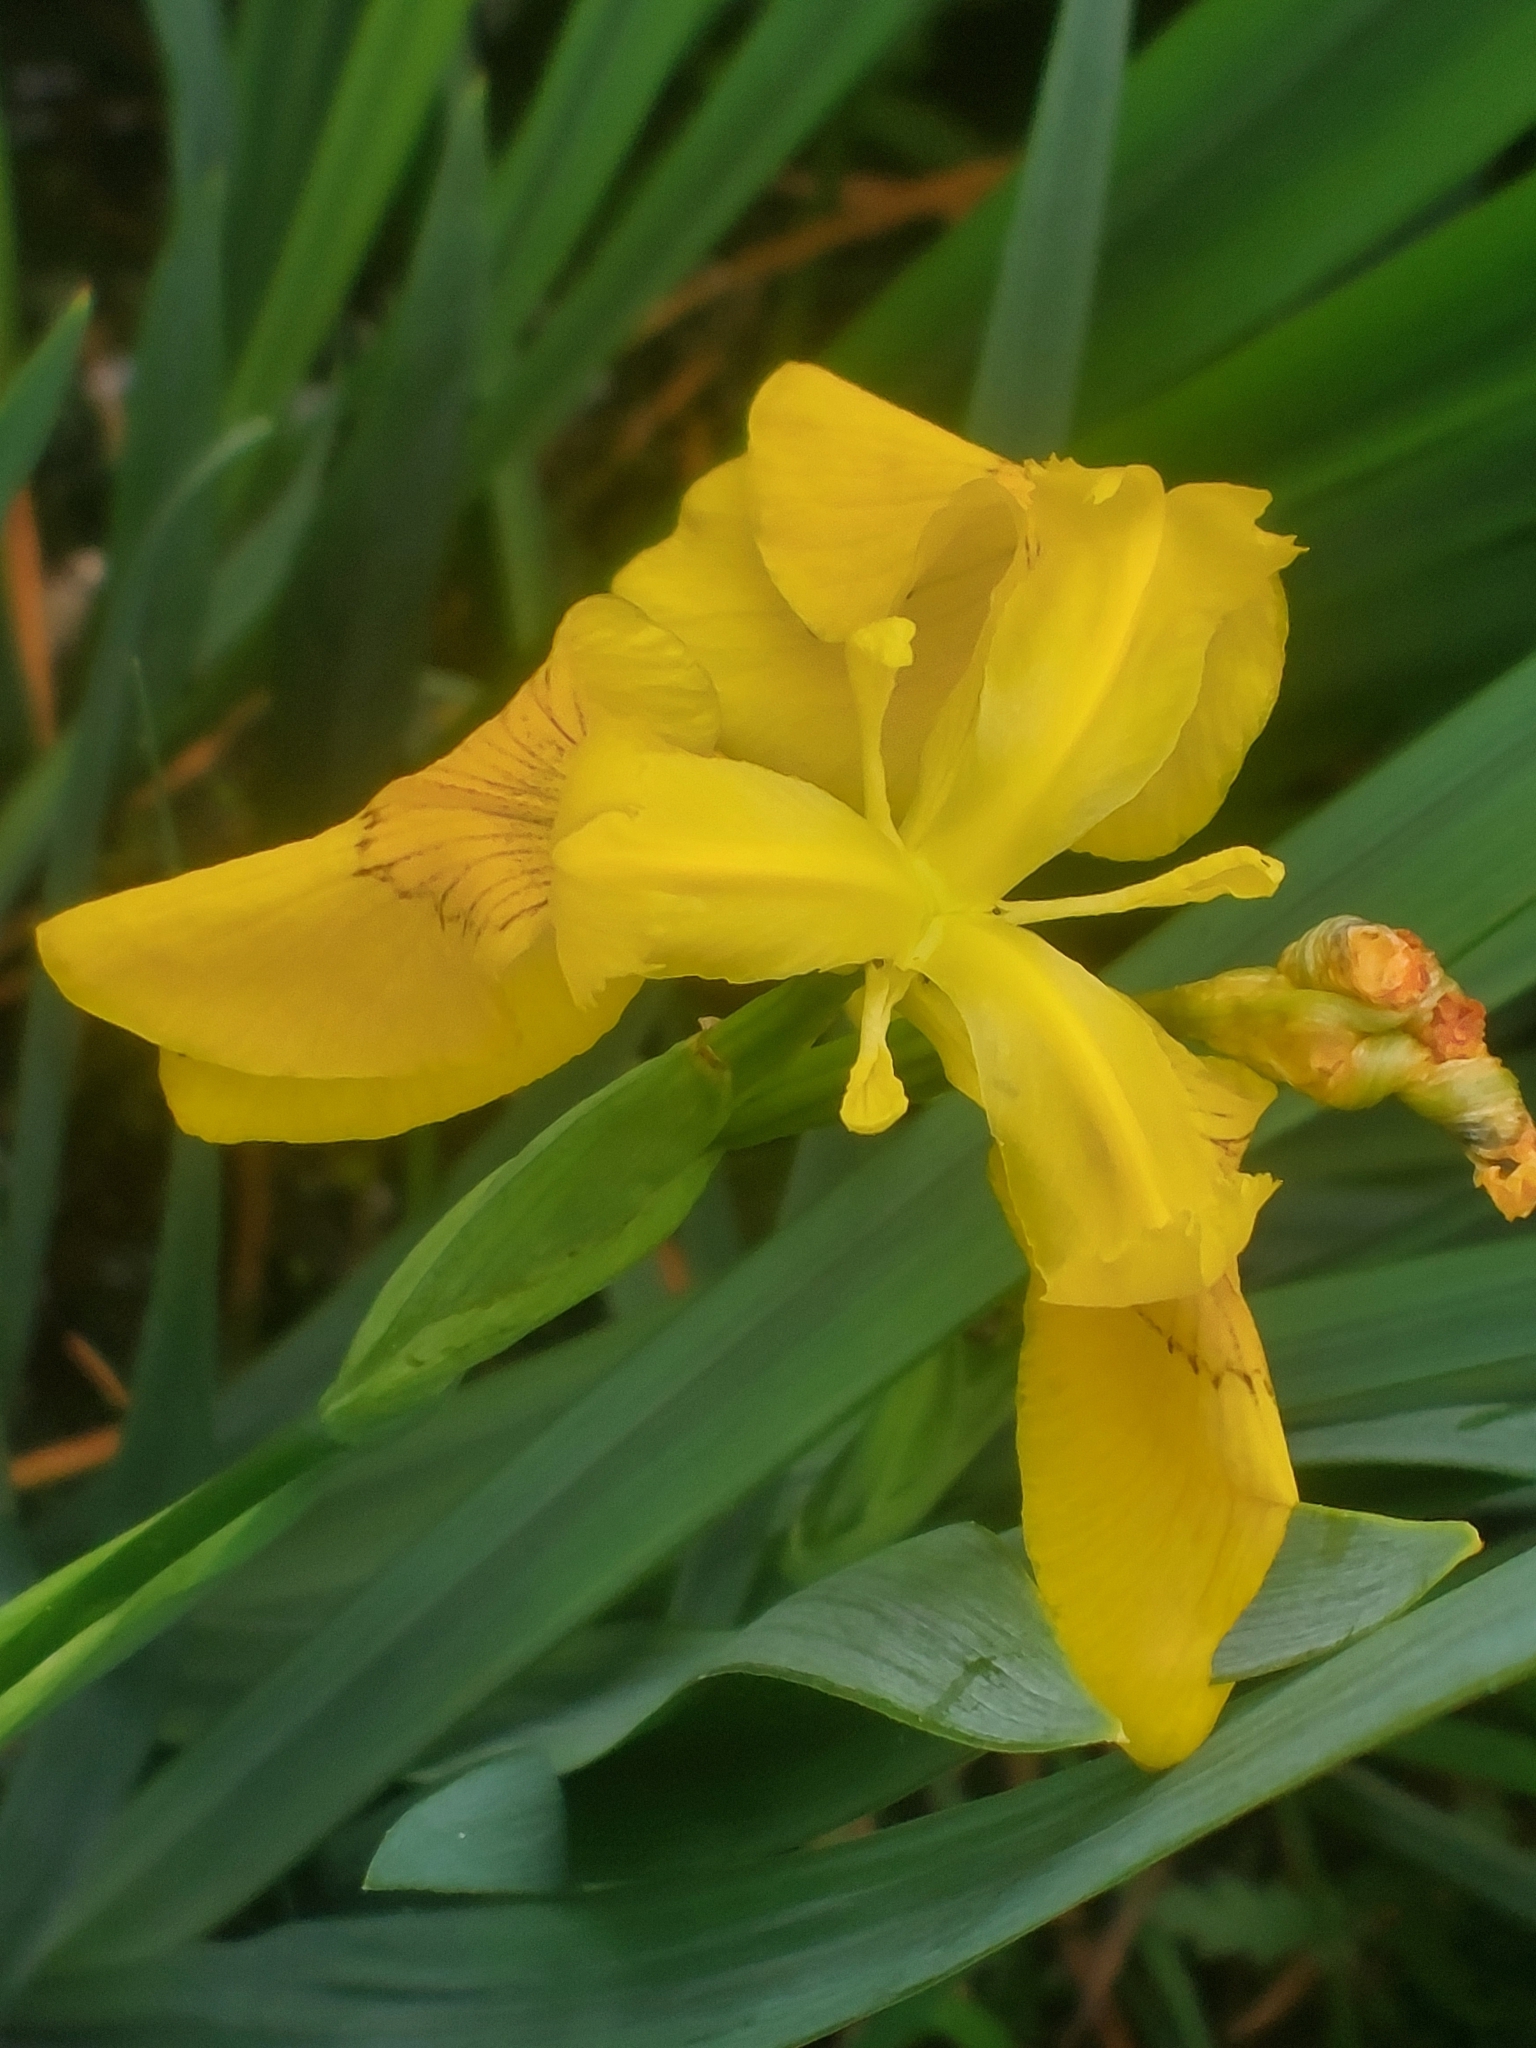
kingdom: Plantae
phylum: Tracheophyta
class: Liliopsida
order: Asparagales
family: Iridaceae
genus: Iris
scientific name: Iris pseudacorus
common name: Yellow flag
